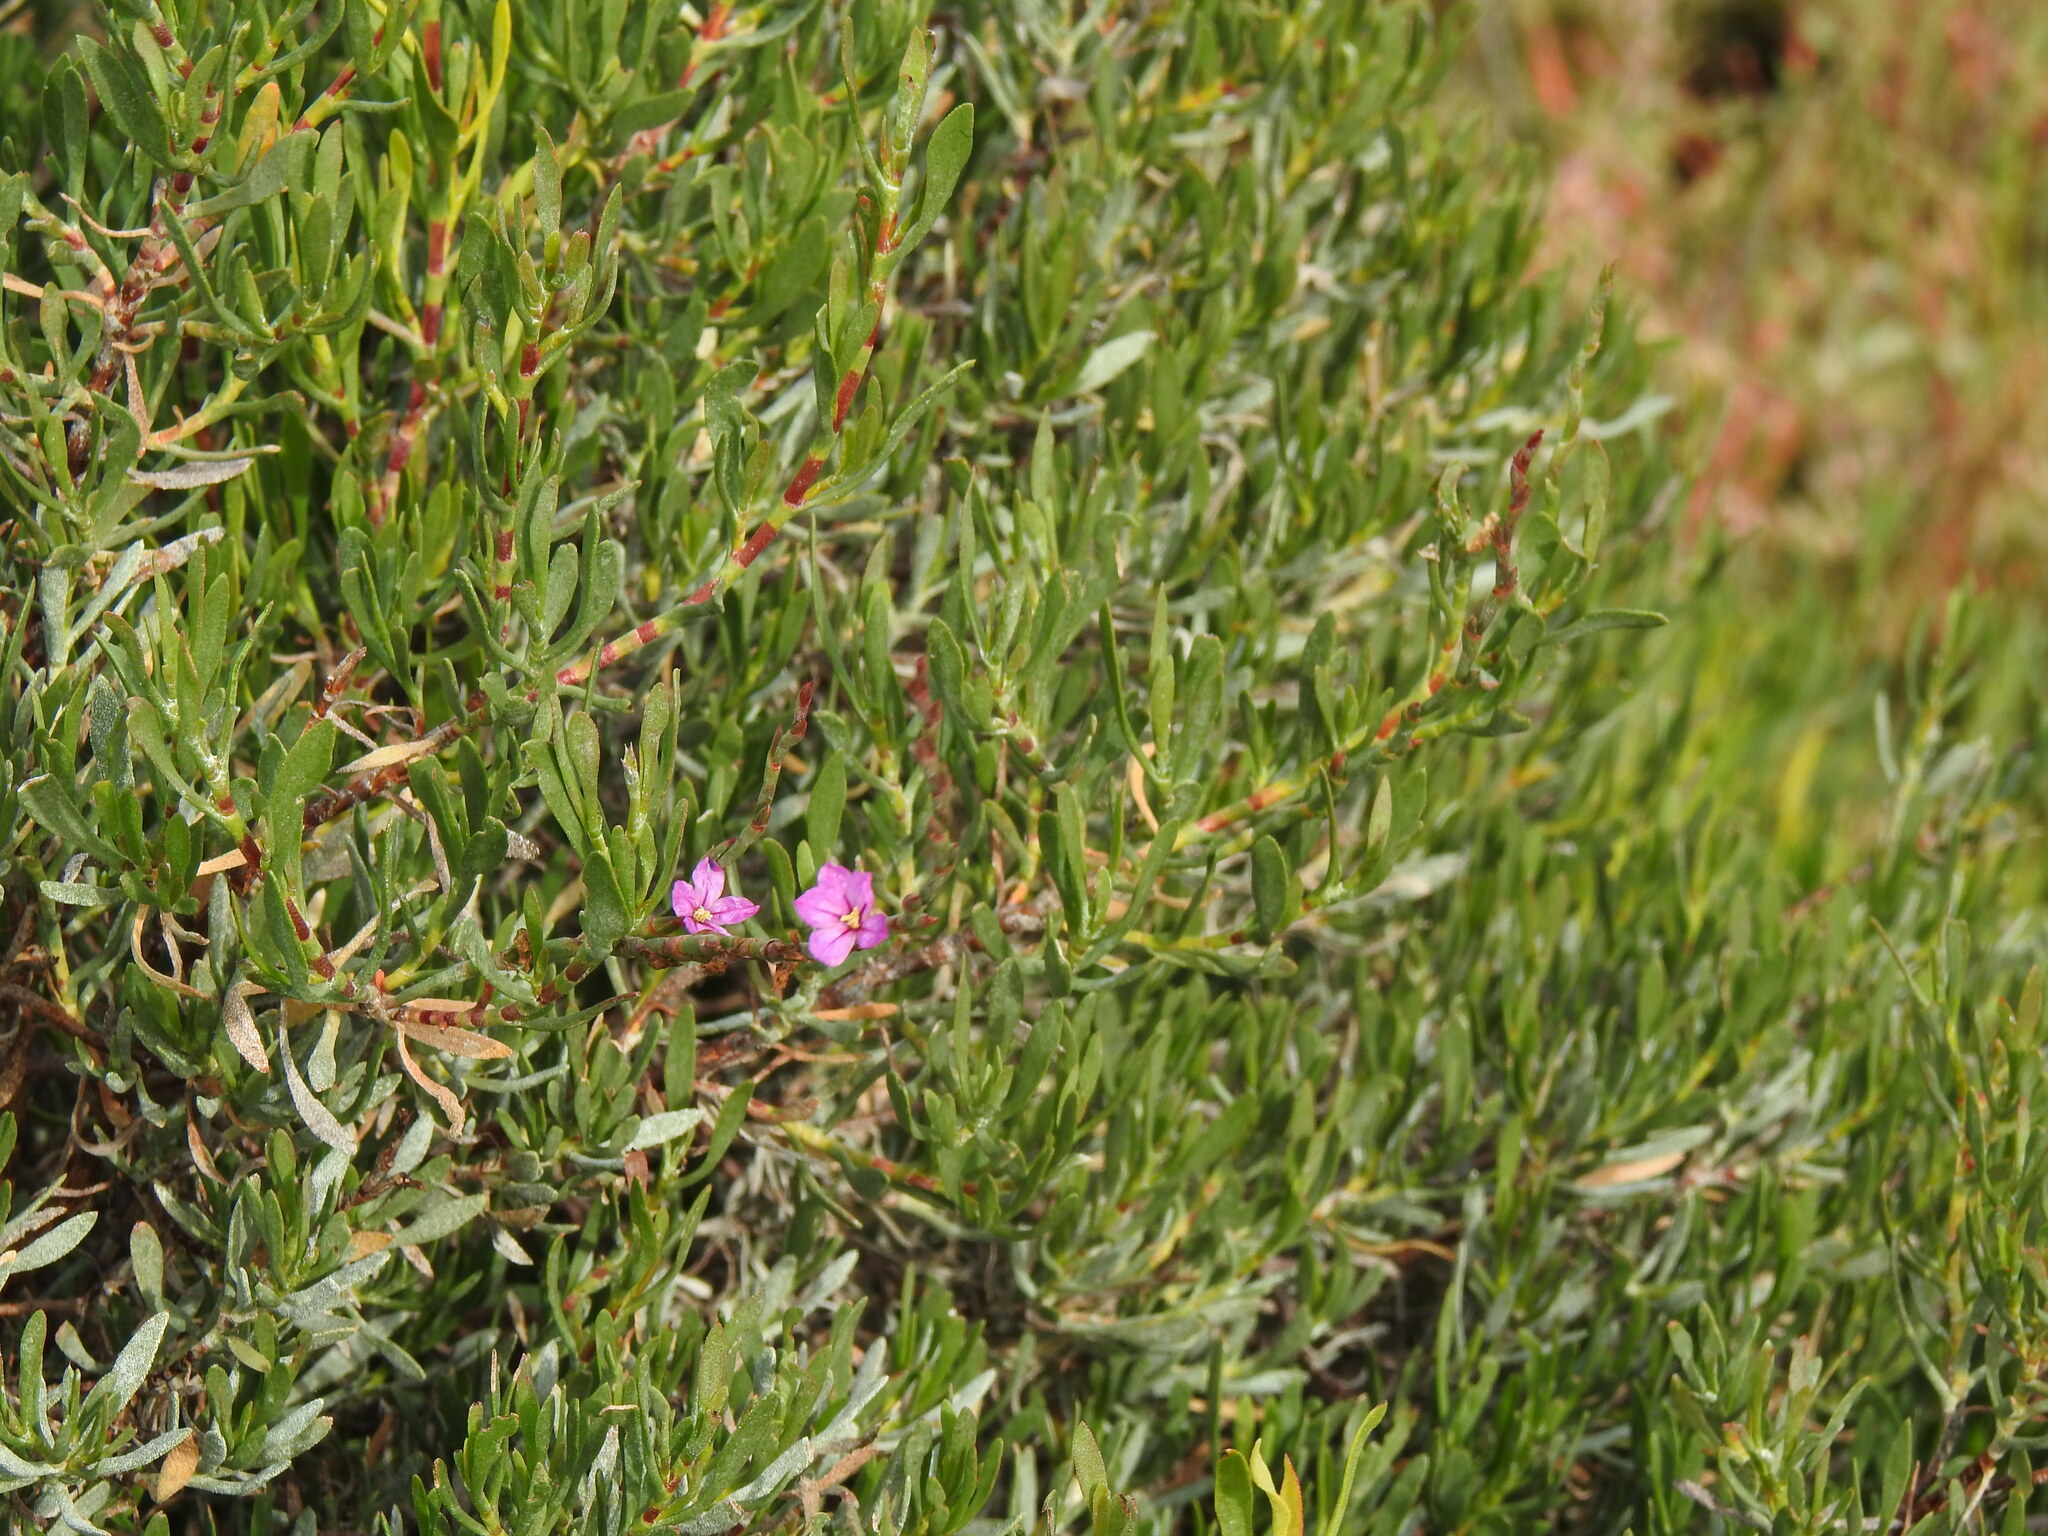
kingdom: Plantae
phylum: Tracheophyta
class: Magnoliopsida
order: Caryophyllales
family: Plumbaginaceae
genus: Limoniastrum
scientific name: Limoniastrum monopetalum
